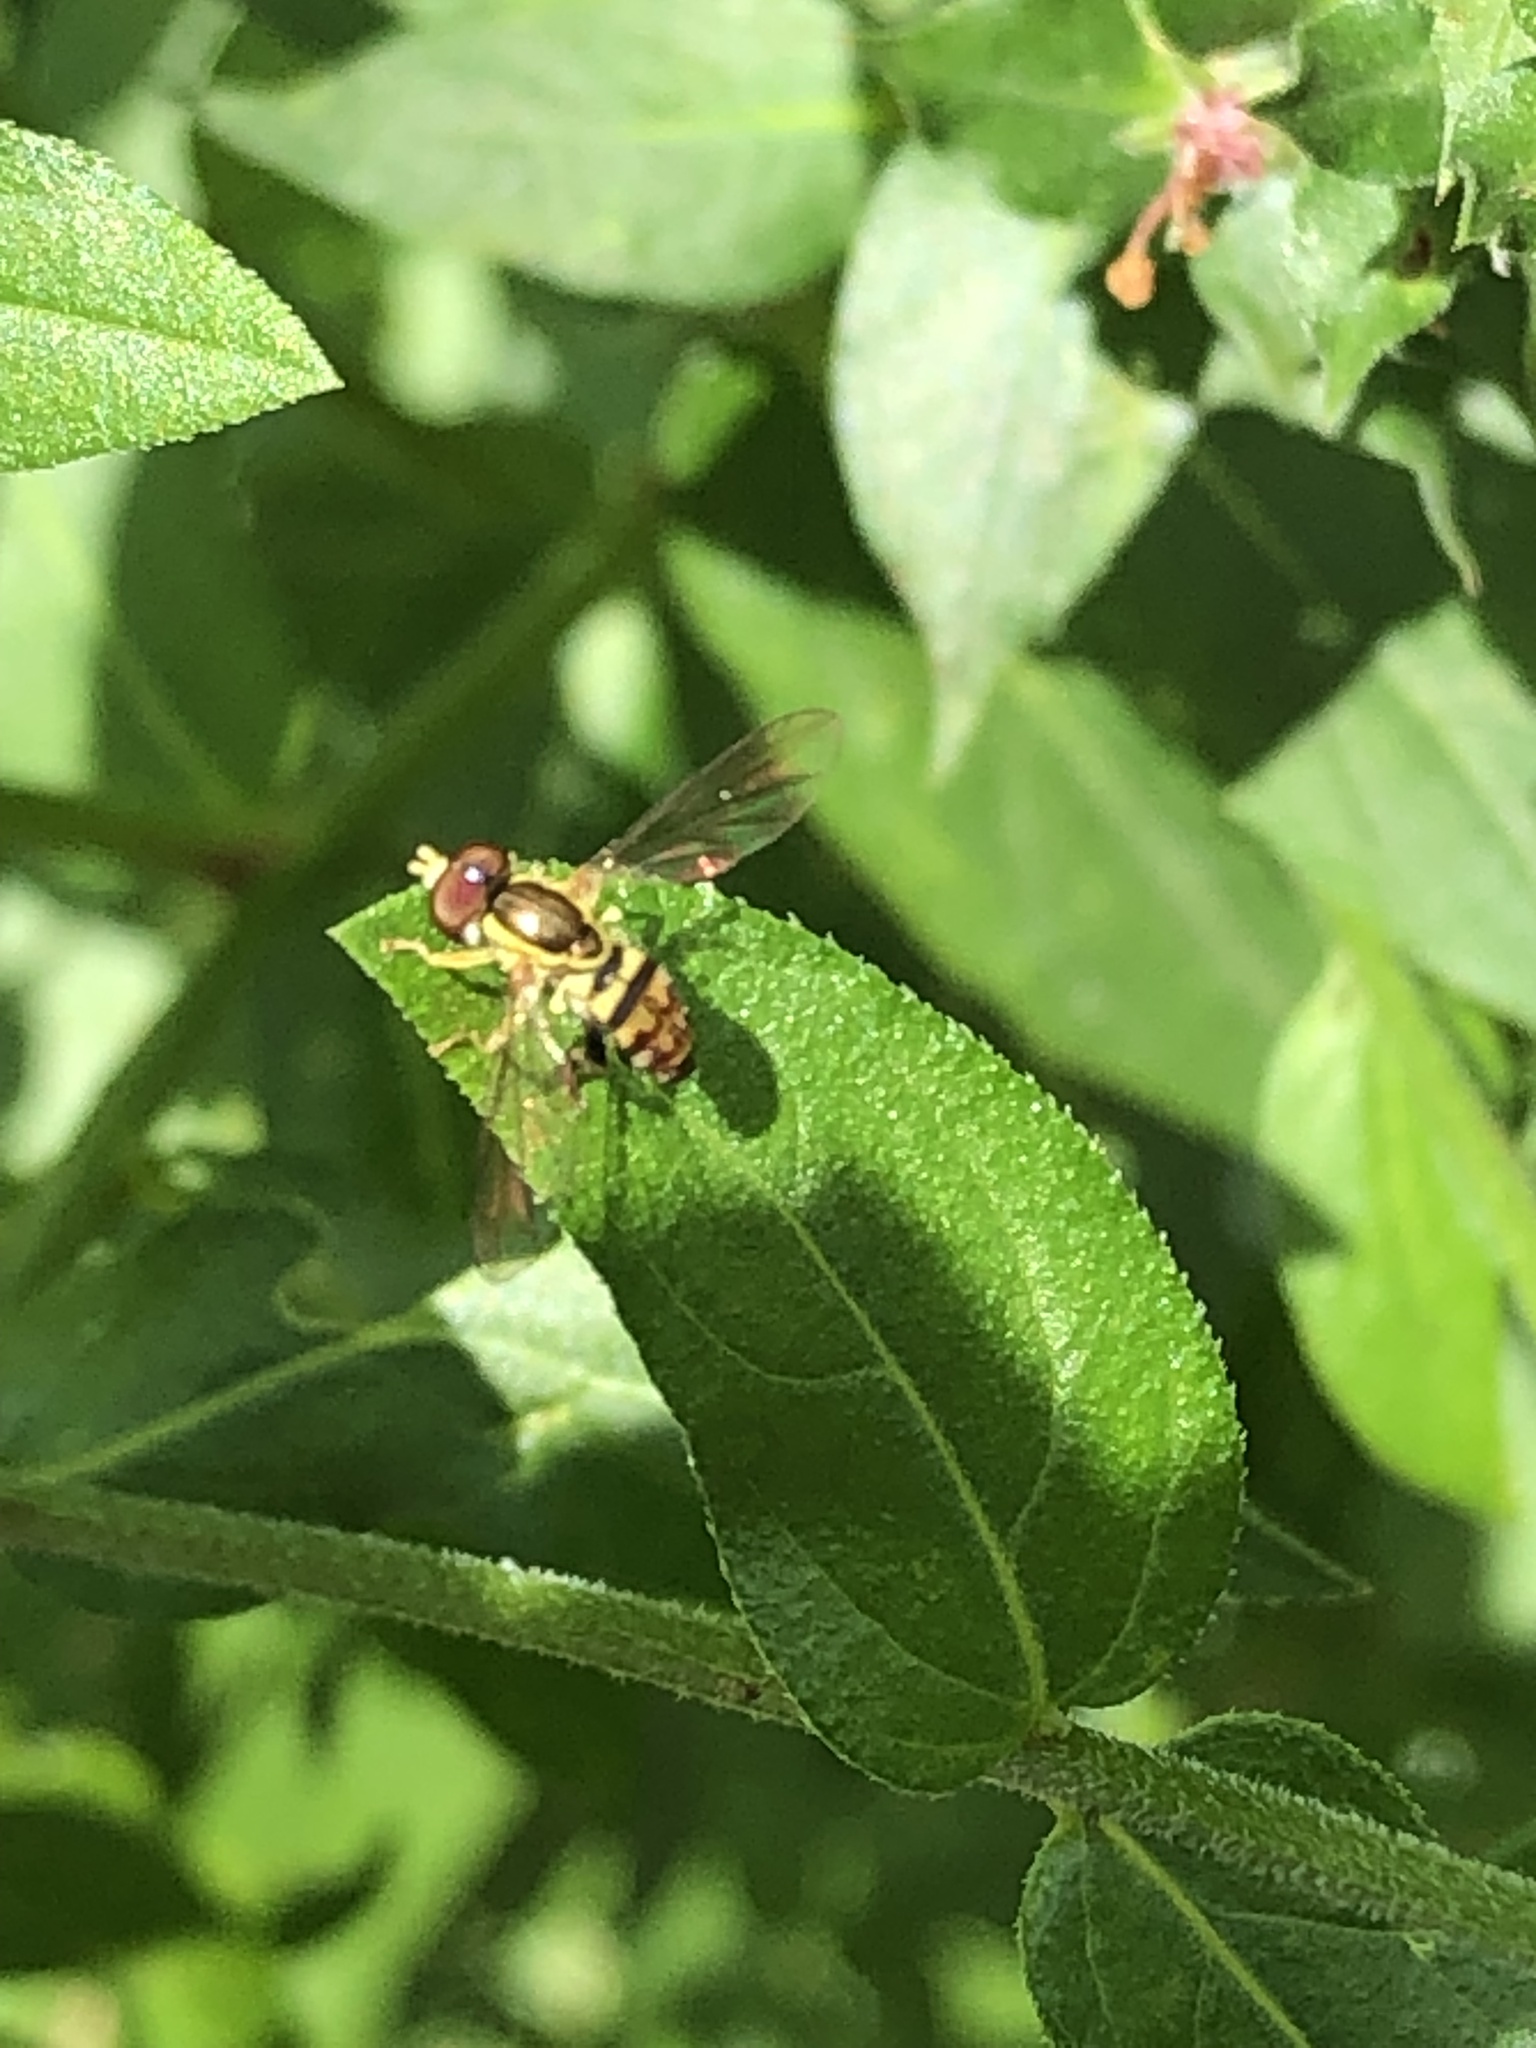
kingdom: Animalia
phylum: Arthropoda
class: Insecta
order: Diptera
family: Syrphidae
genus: Toxomerus
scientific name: Toxomerus geminatus
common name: Eastern calligrapher
